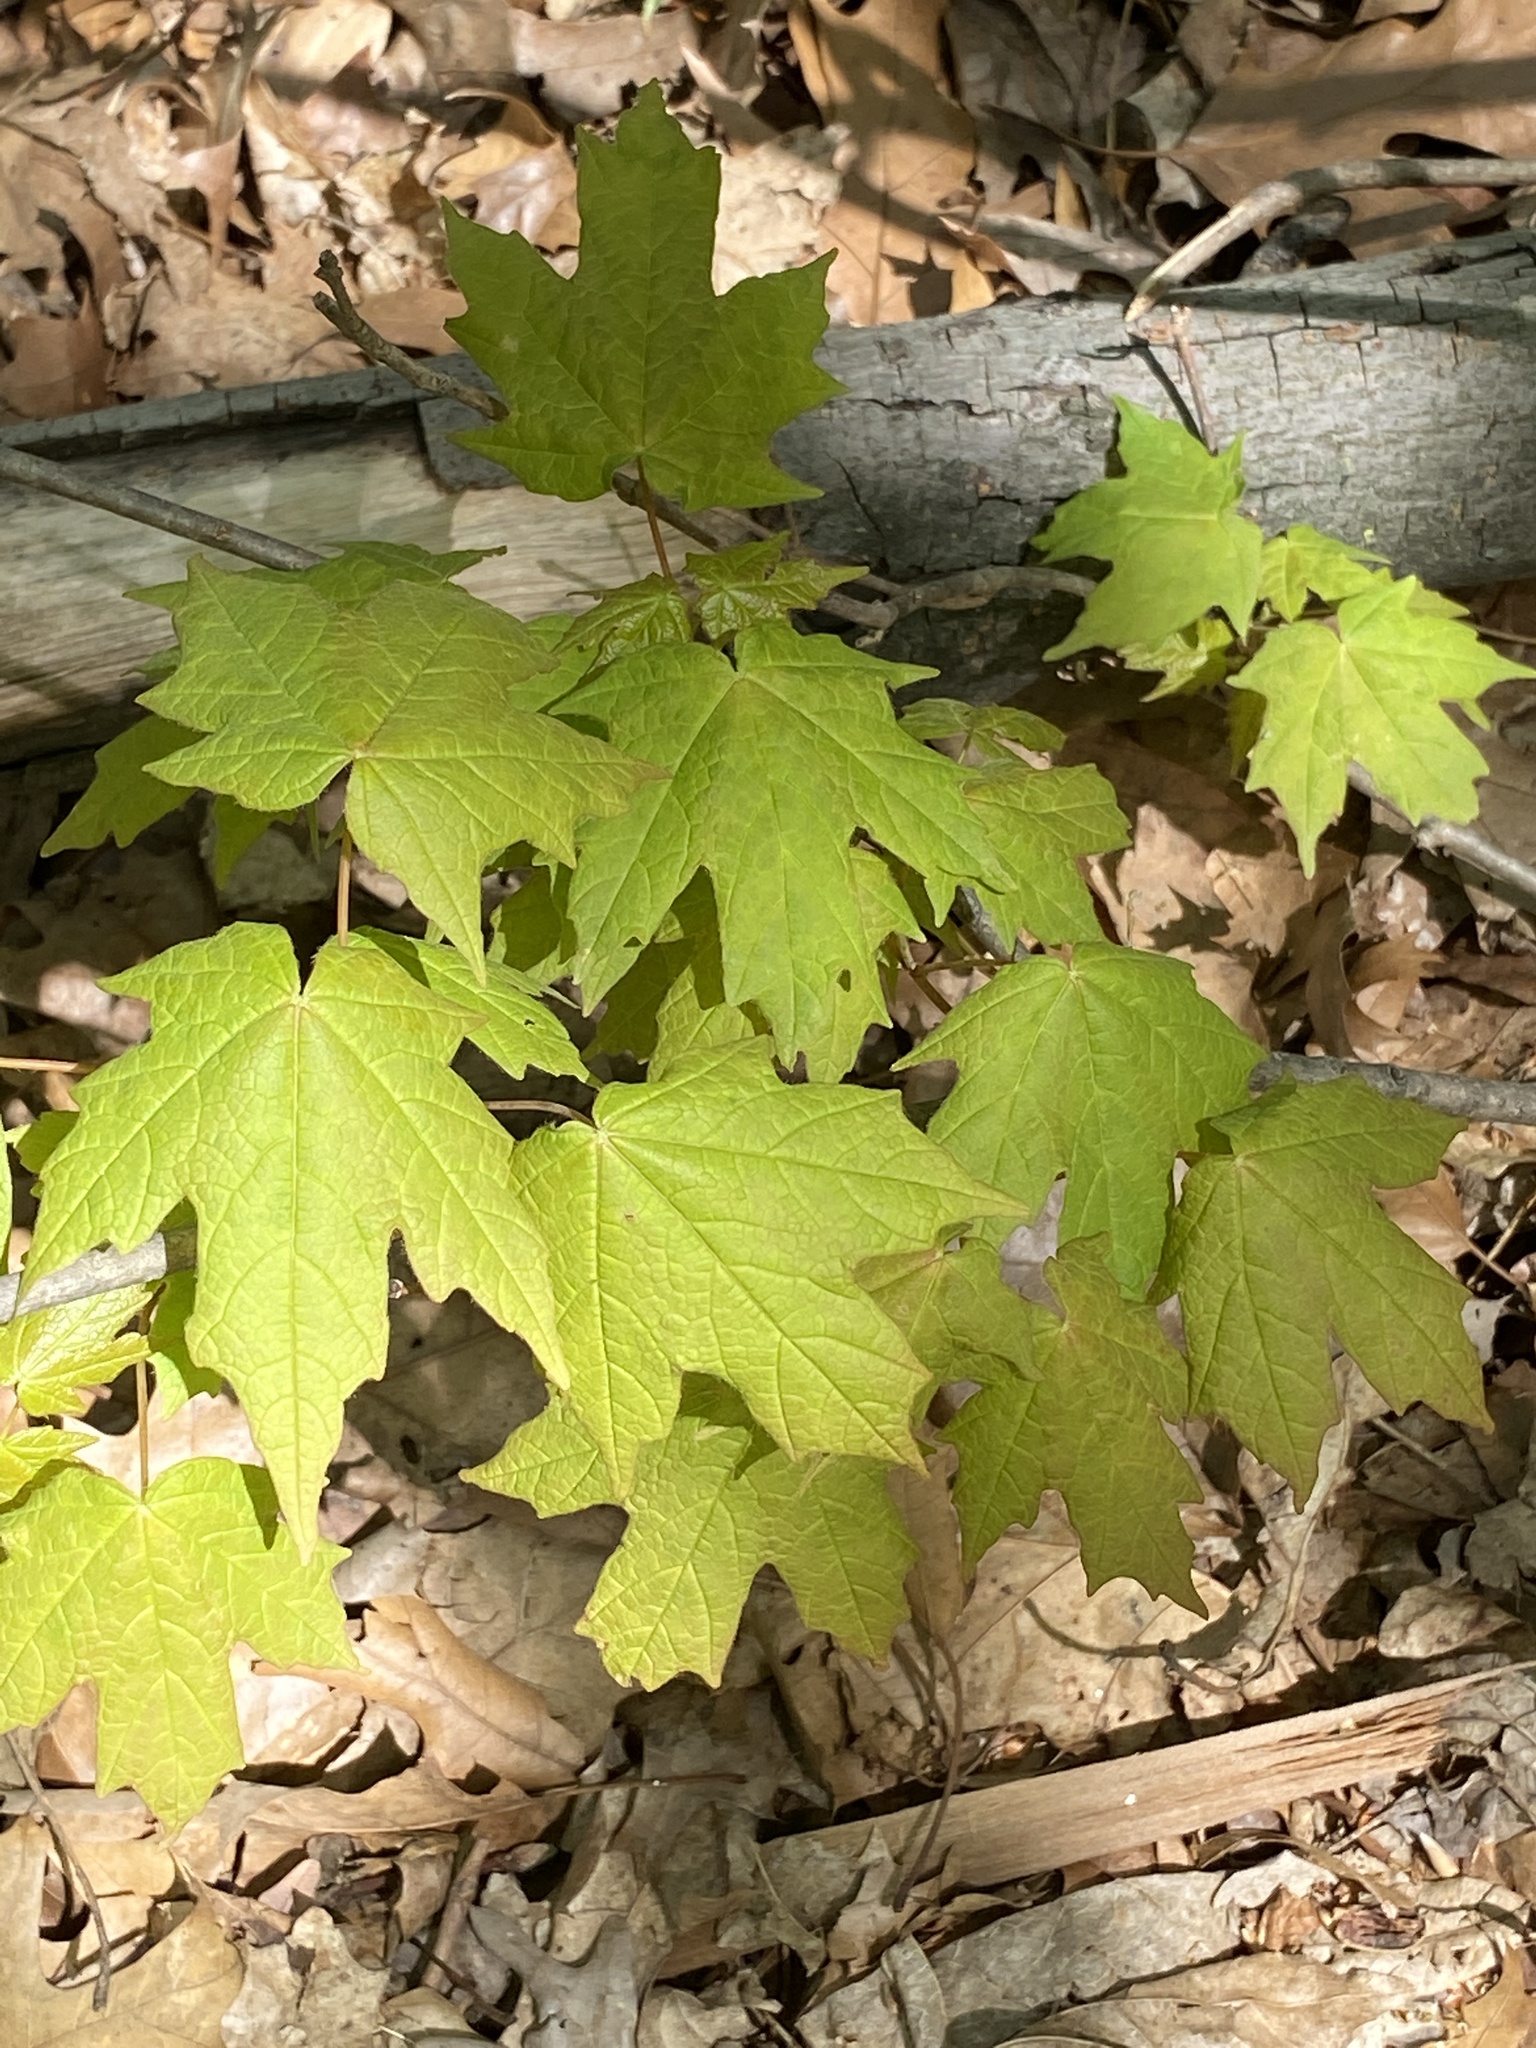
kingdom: Plantae
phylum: Tracheophyta
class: Magnoliopsida
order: Sapindales
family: Sapindaceae
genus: Acer
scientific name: Acer saccharum
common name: Sugar maple
